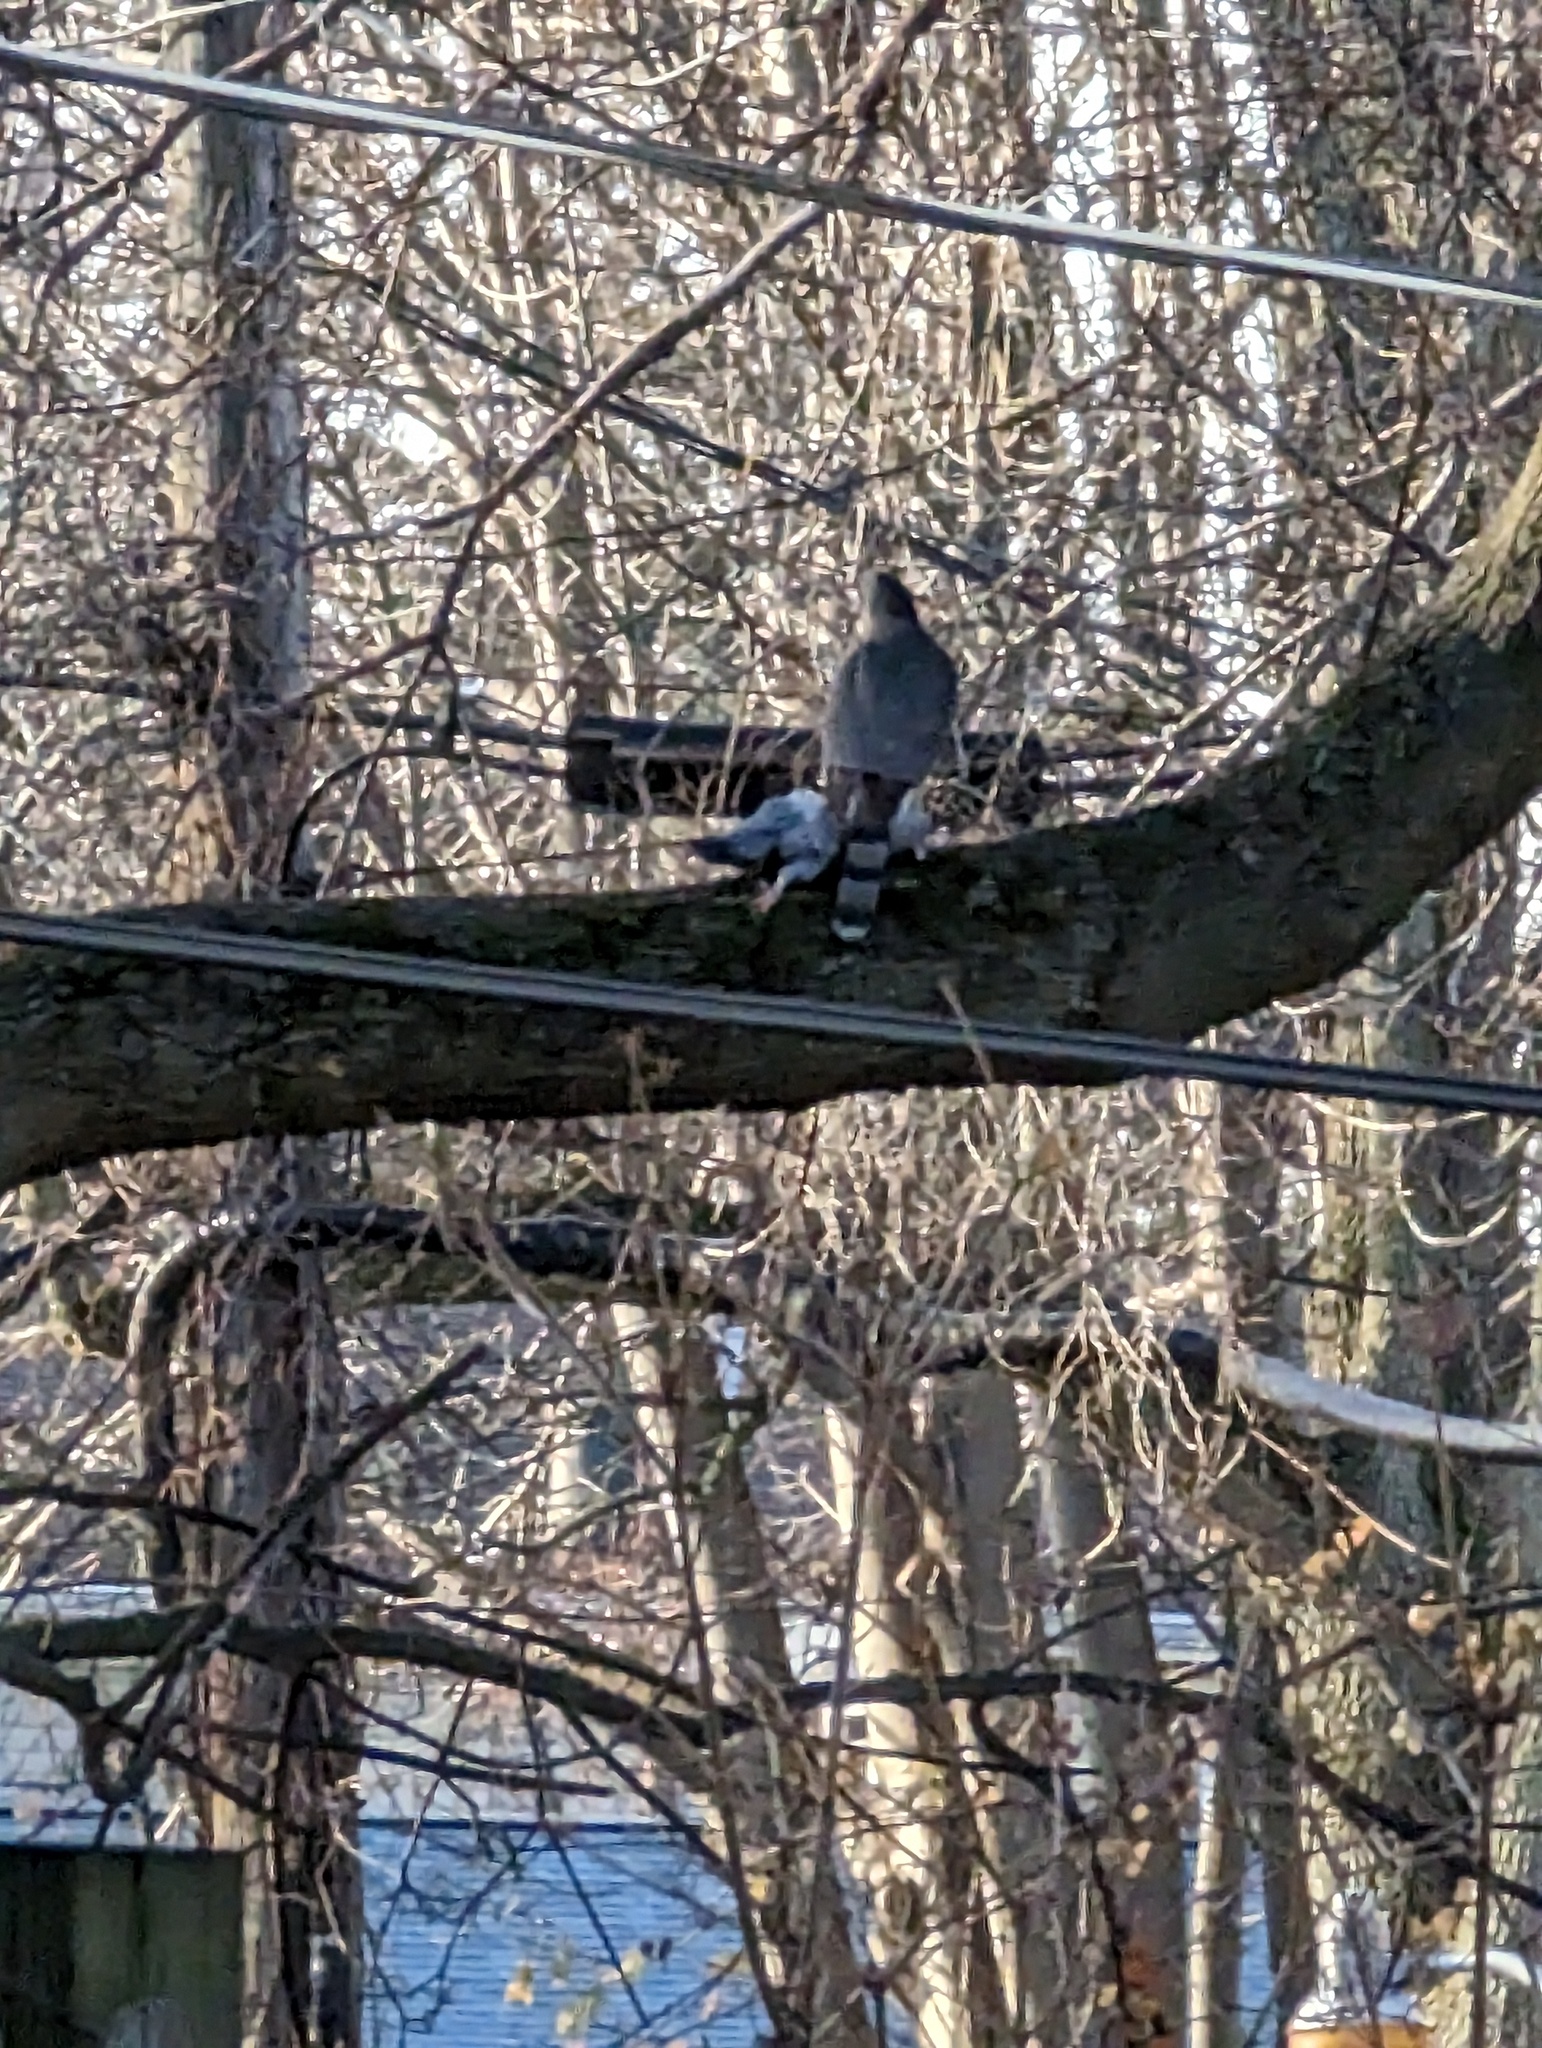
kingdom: Animalia
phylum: Chordata
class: Aves
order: Accipitriformes
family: Accipitridae
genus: Accipiter
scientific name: Accipiter cooperii
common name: Cooper's hawk
